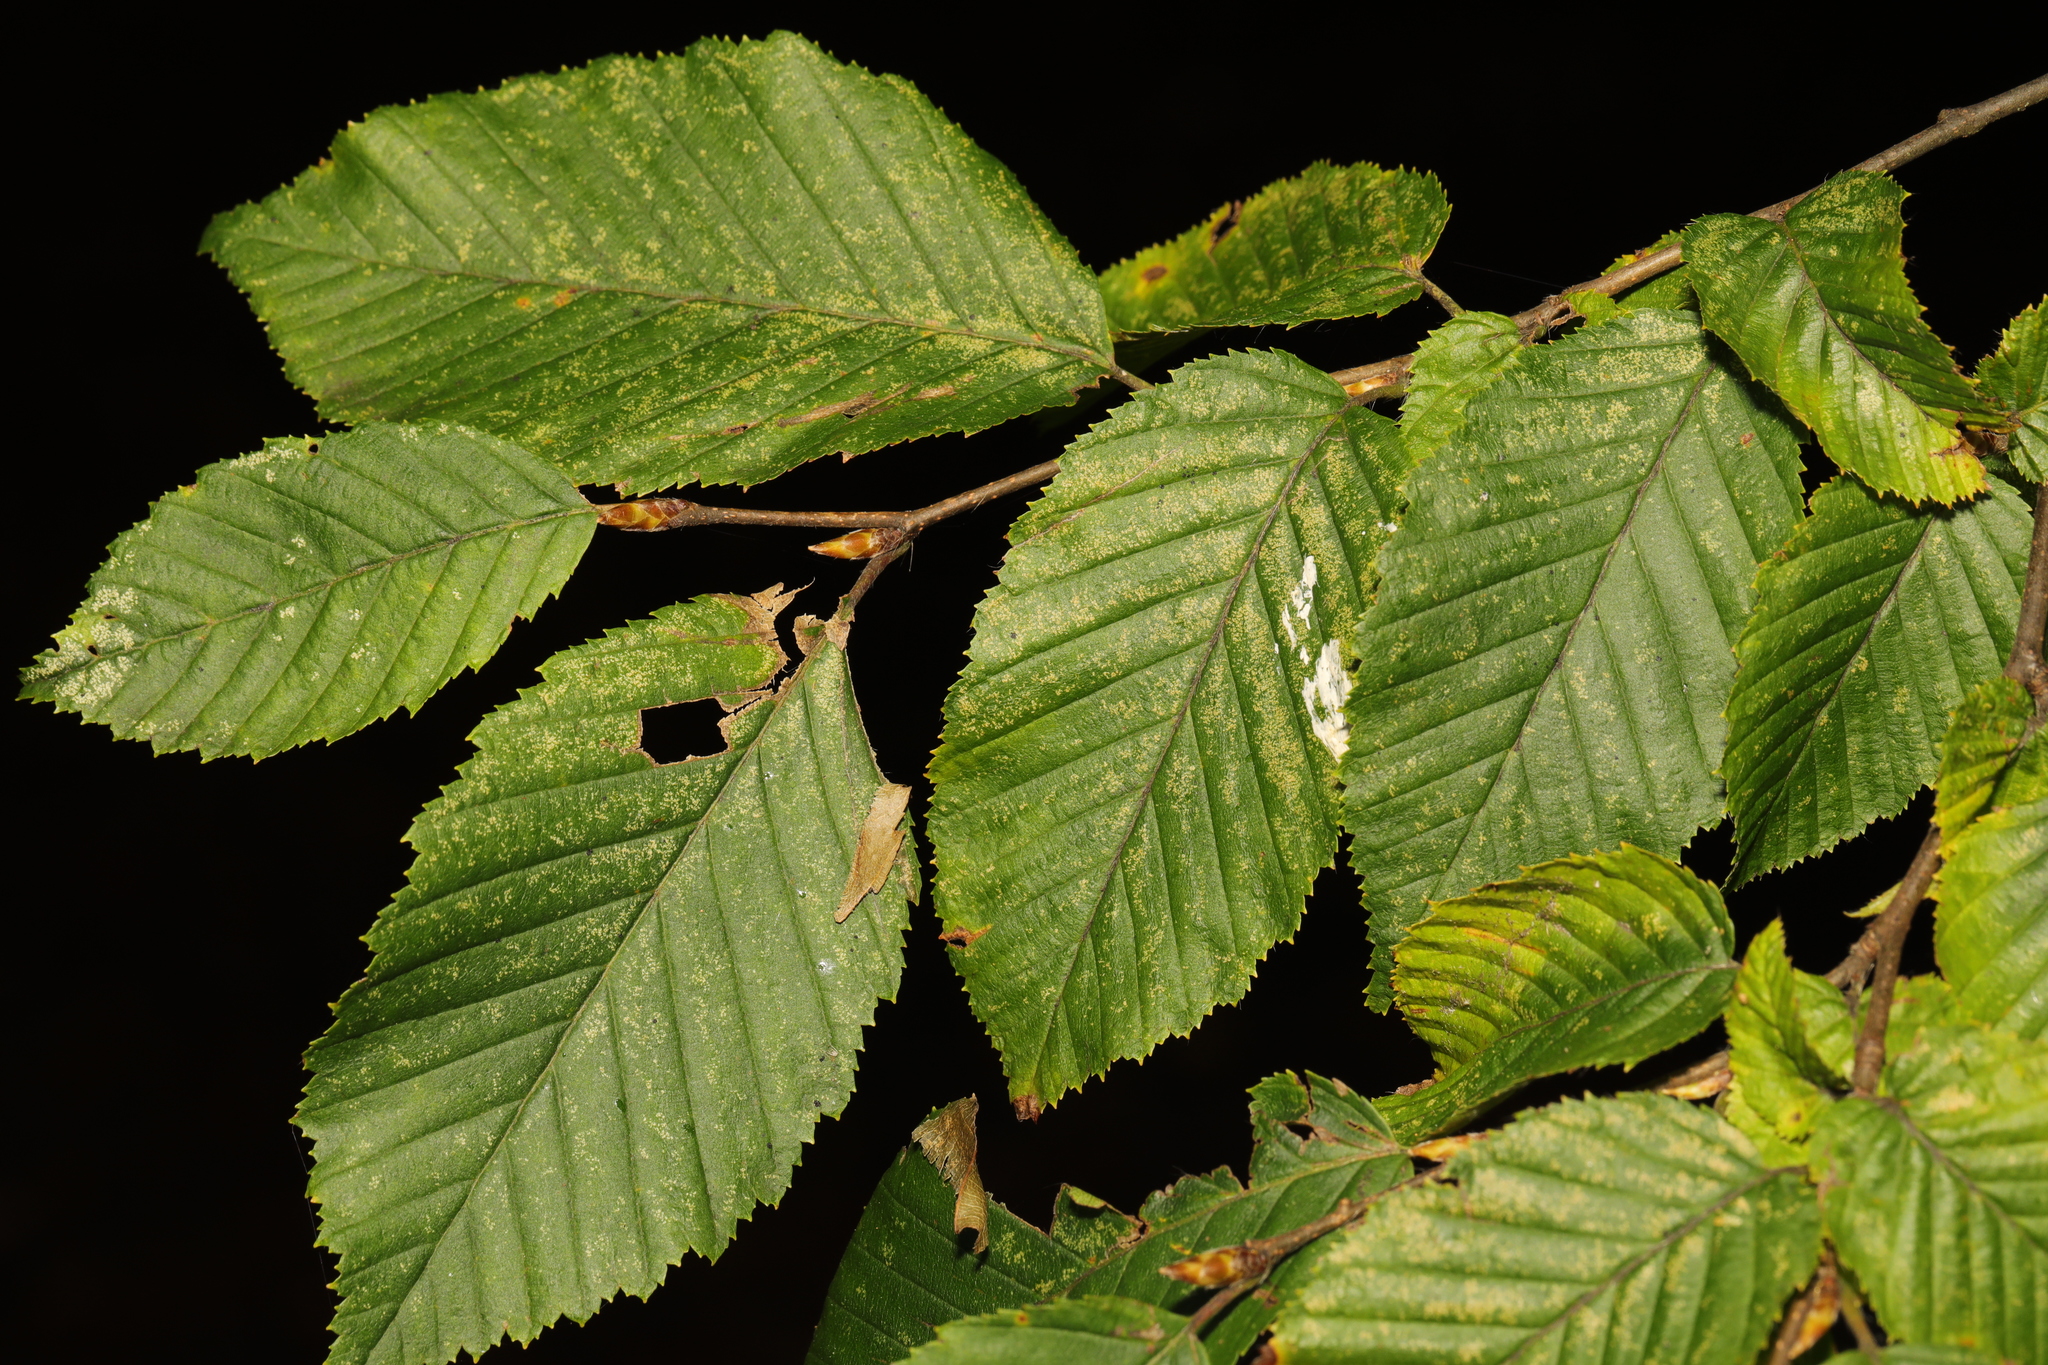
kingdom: Plantae
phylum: Tracheophyta
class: Magnoliopsida
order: Fagales
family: Betulaceae
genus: Carpinus
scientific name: Carpinus betulus
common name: Hornbeam
